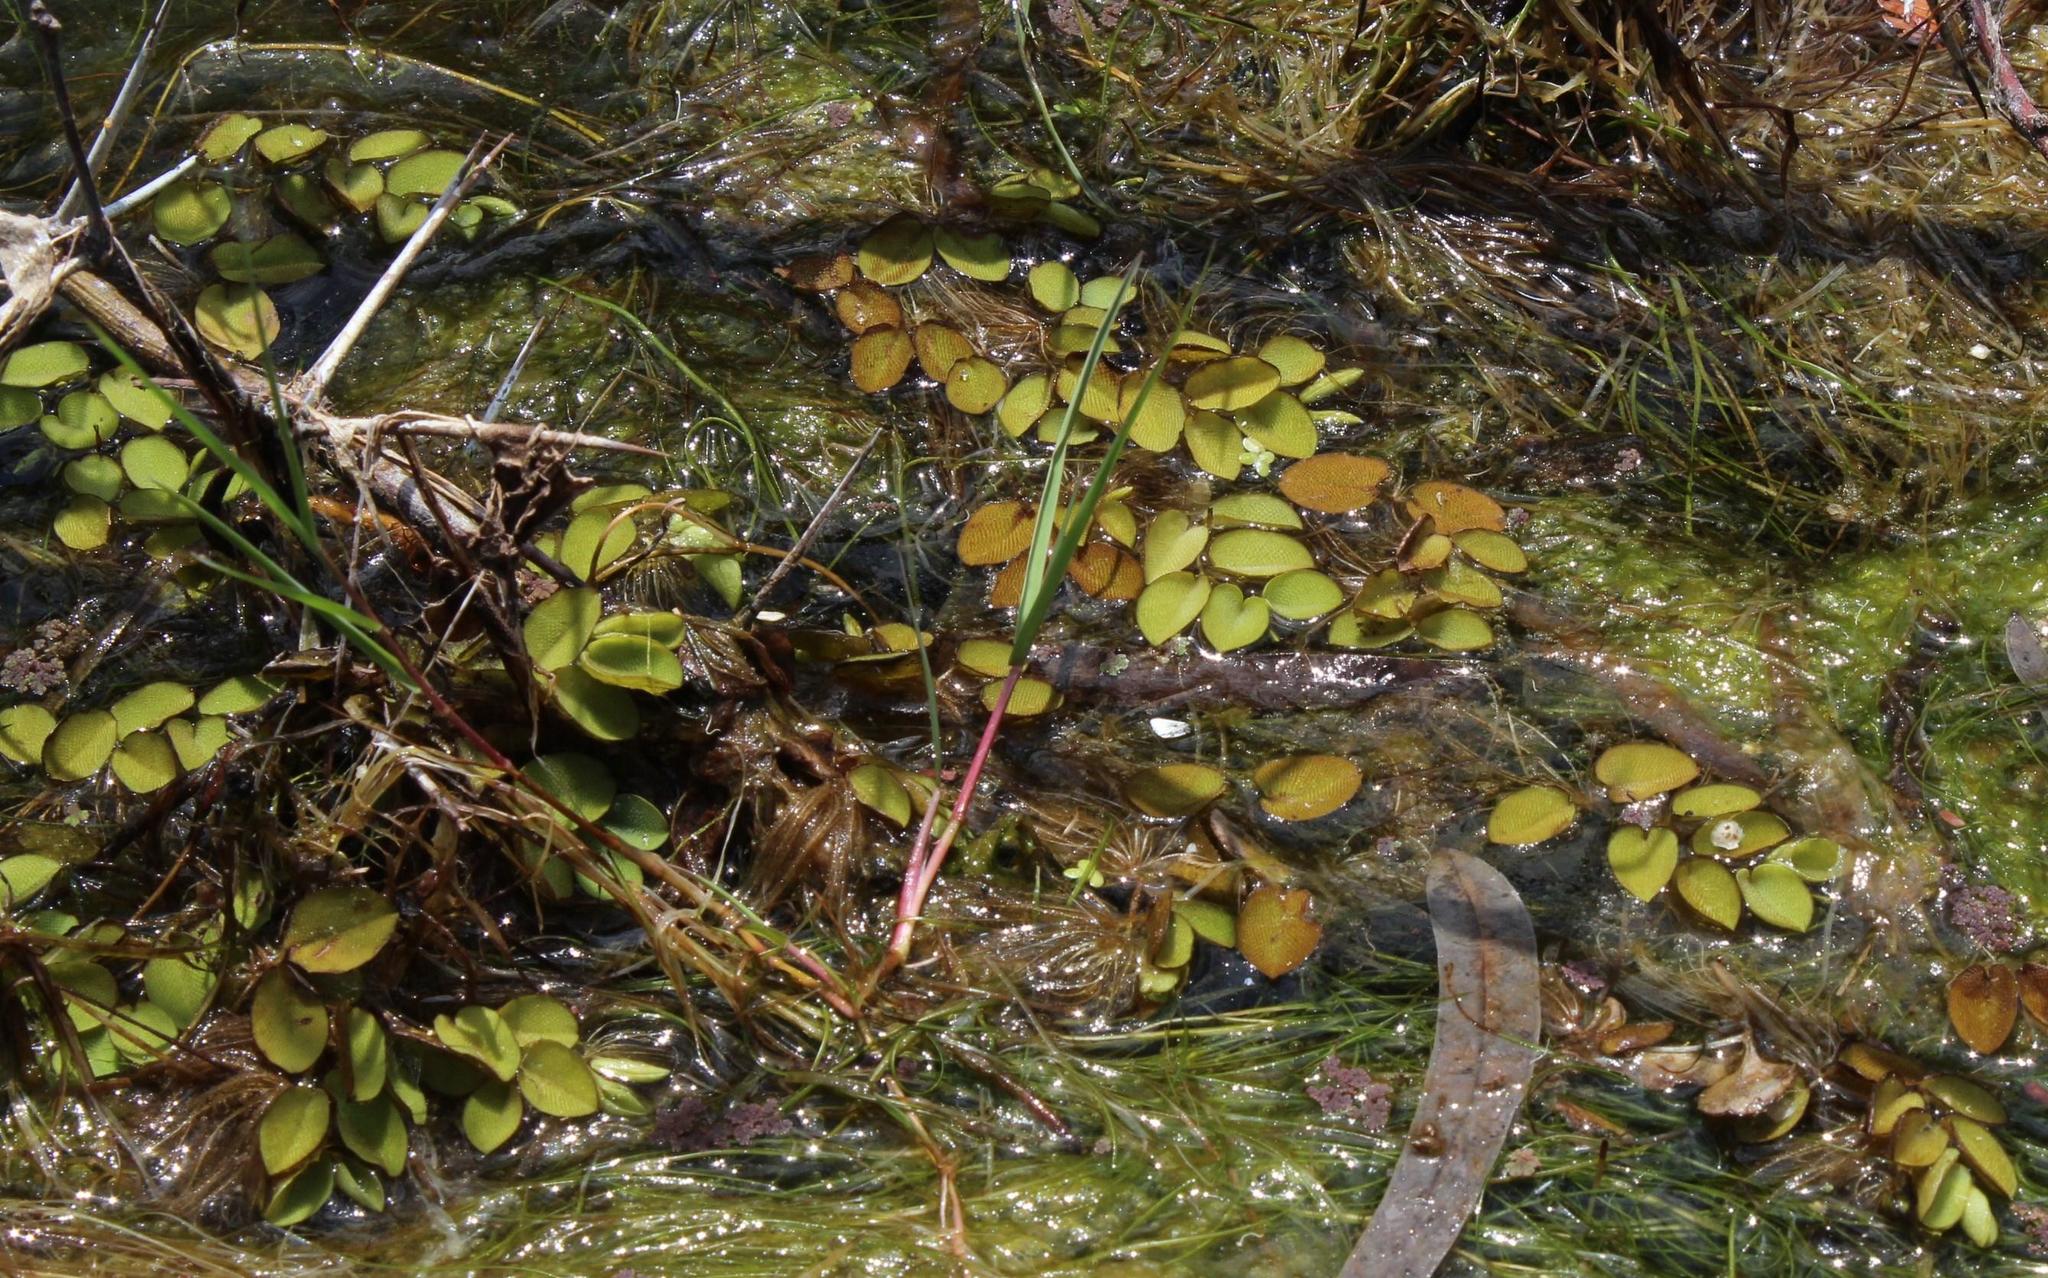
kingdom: Plantae
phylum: Tracheophyta
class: Polypodiopsida
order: Salviniales
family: Salviniaceae
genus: Salvinia
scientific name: Salvinia molesta
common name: Kariba weed
